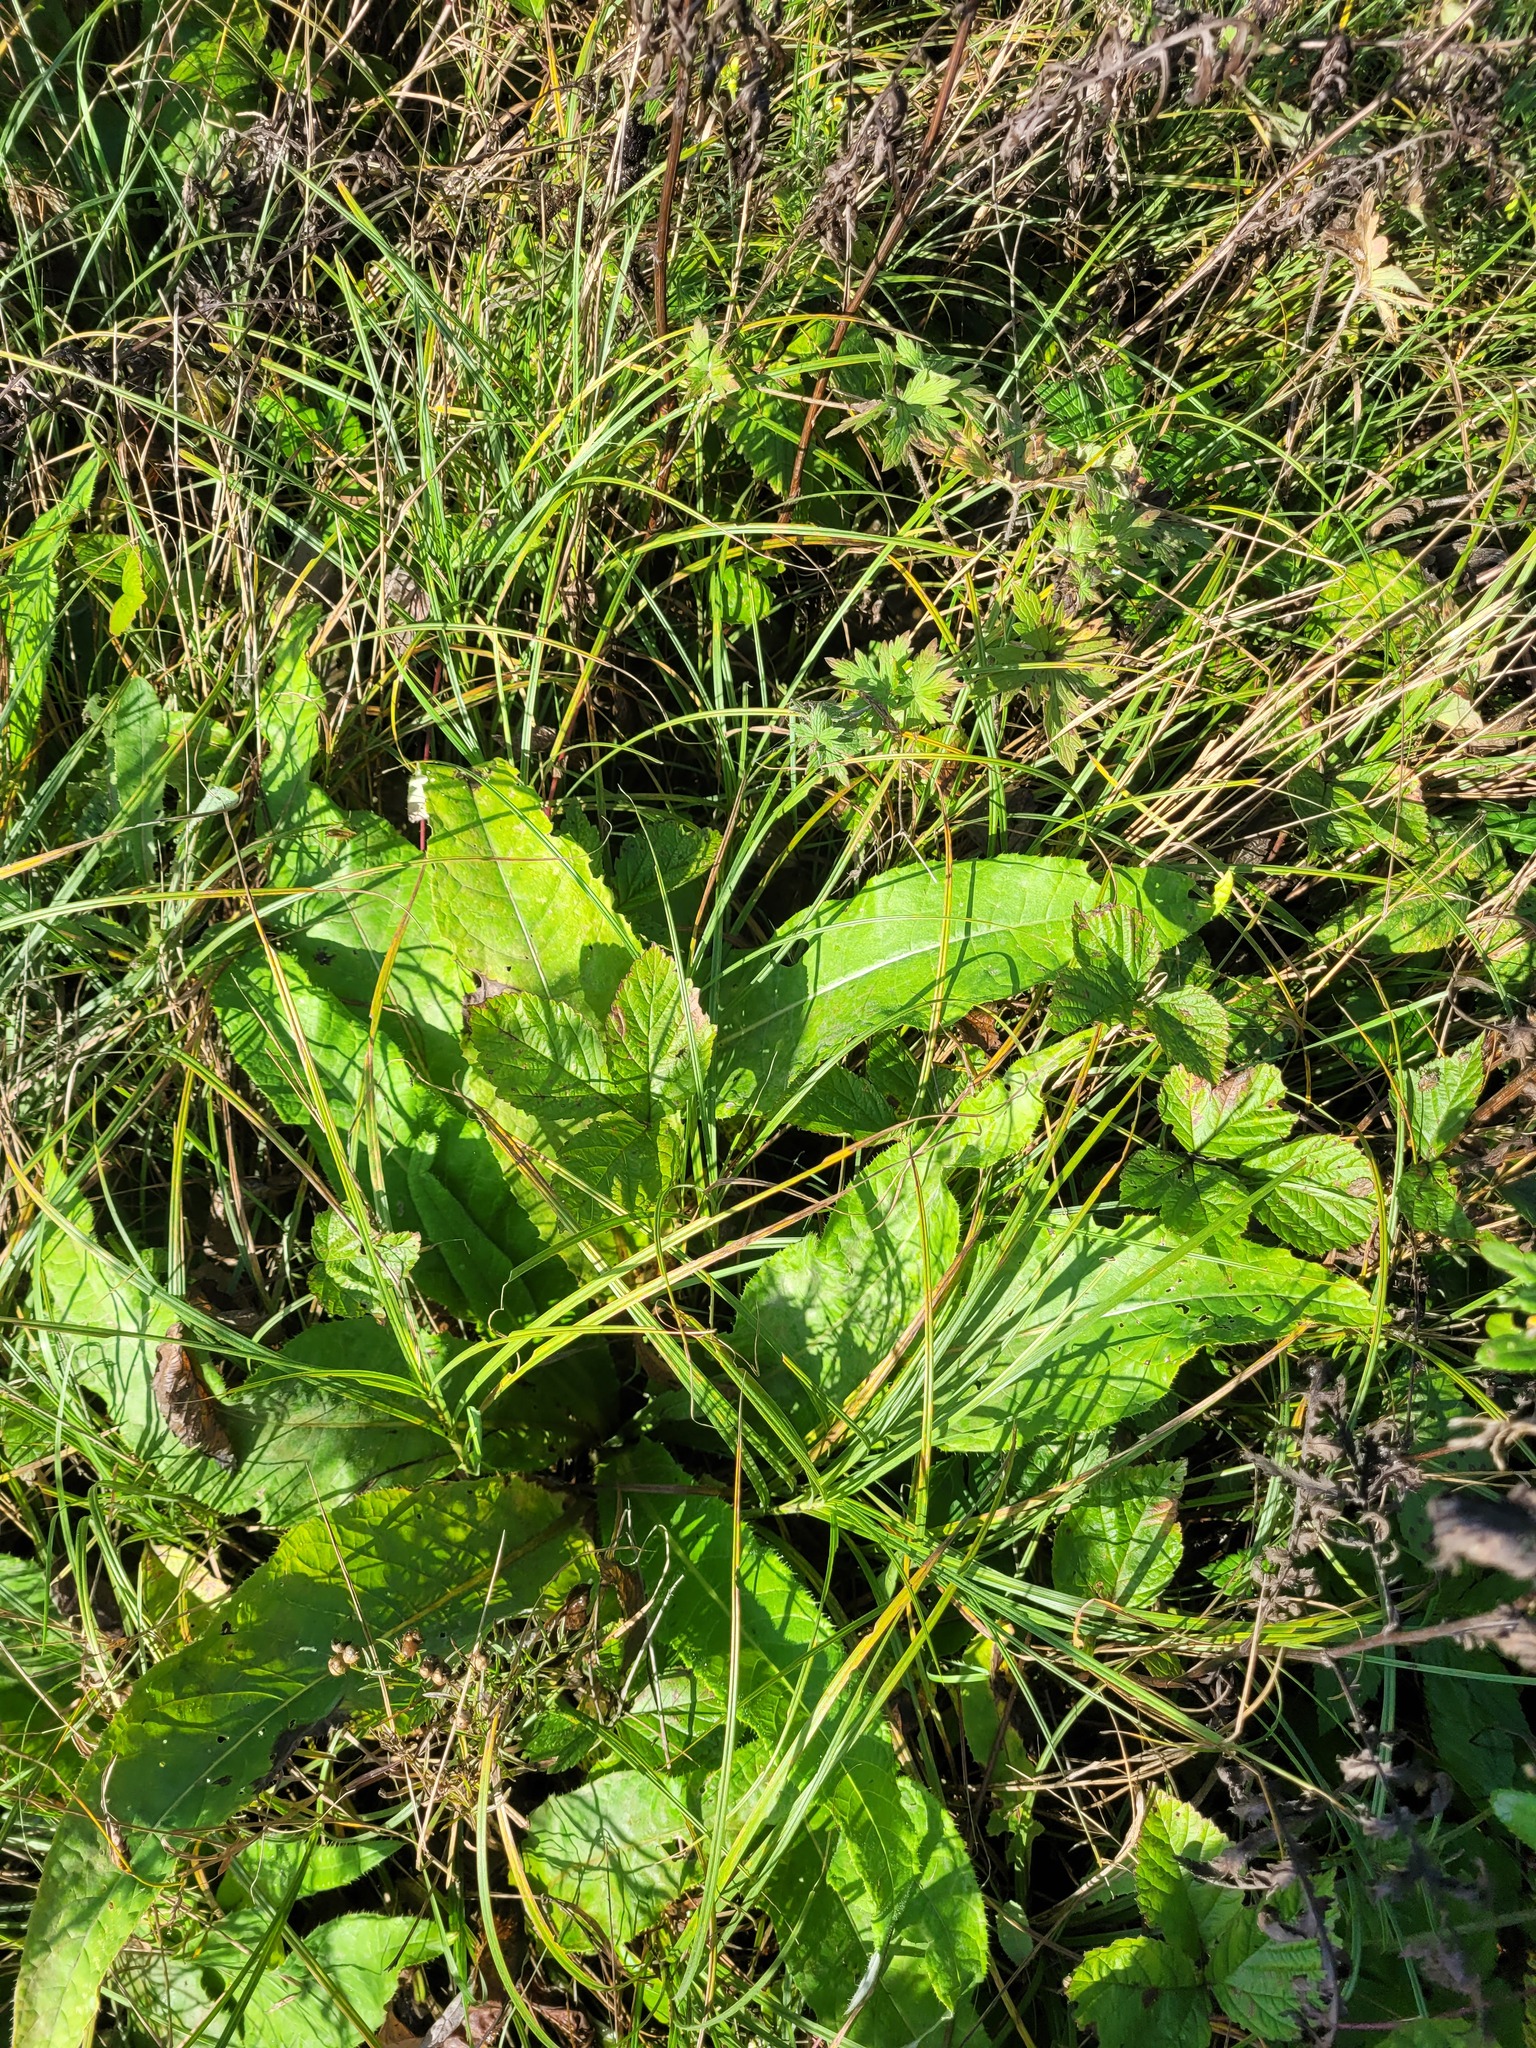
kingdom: Plantae
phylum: Tracheophyta
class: Magnoliopsida
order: Asterales
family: Asteraceae
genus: Cirsium
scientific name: Cirsium heterophyllum
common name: Melancholy thistle
